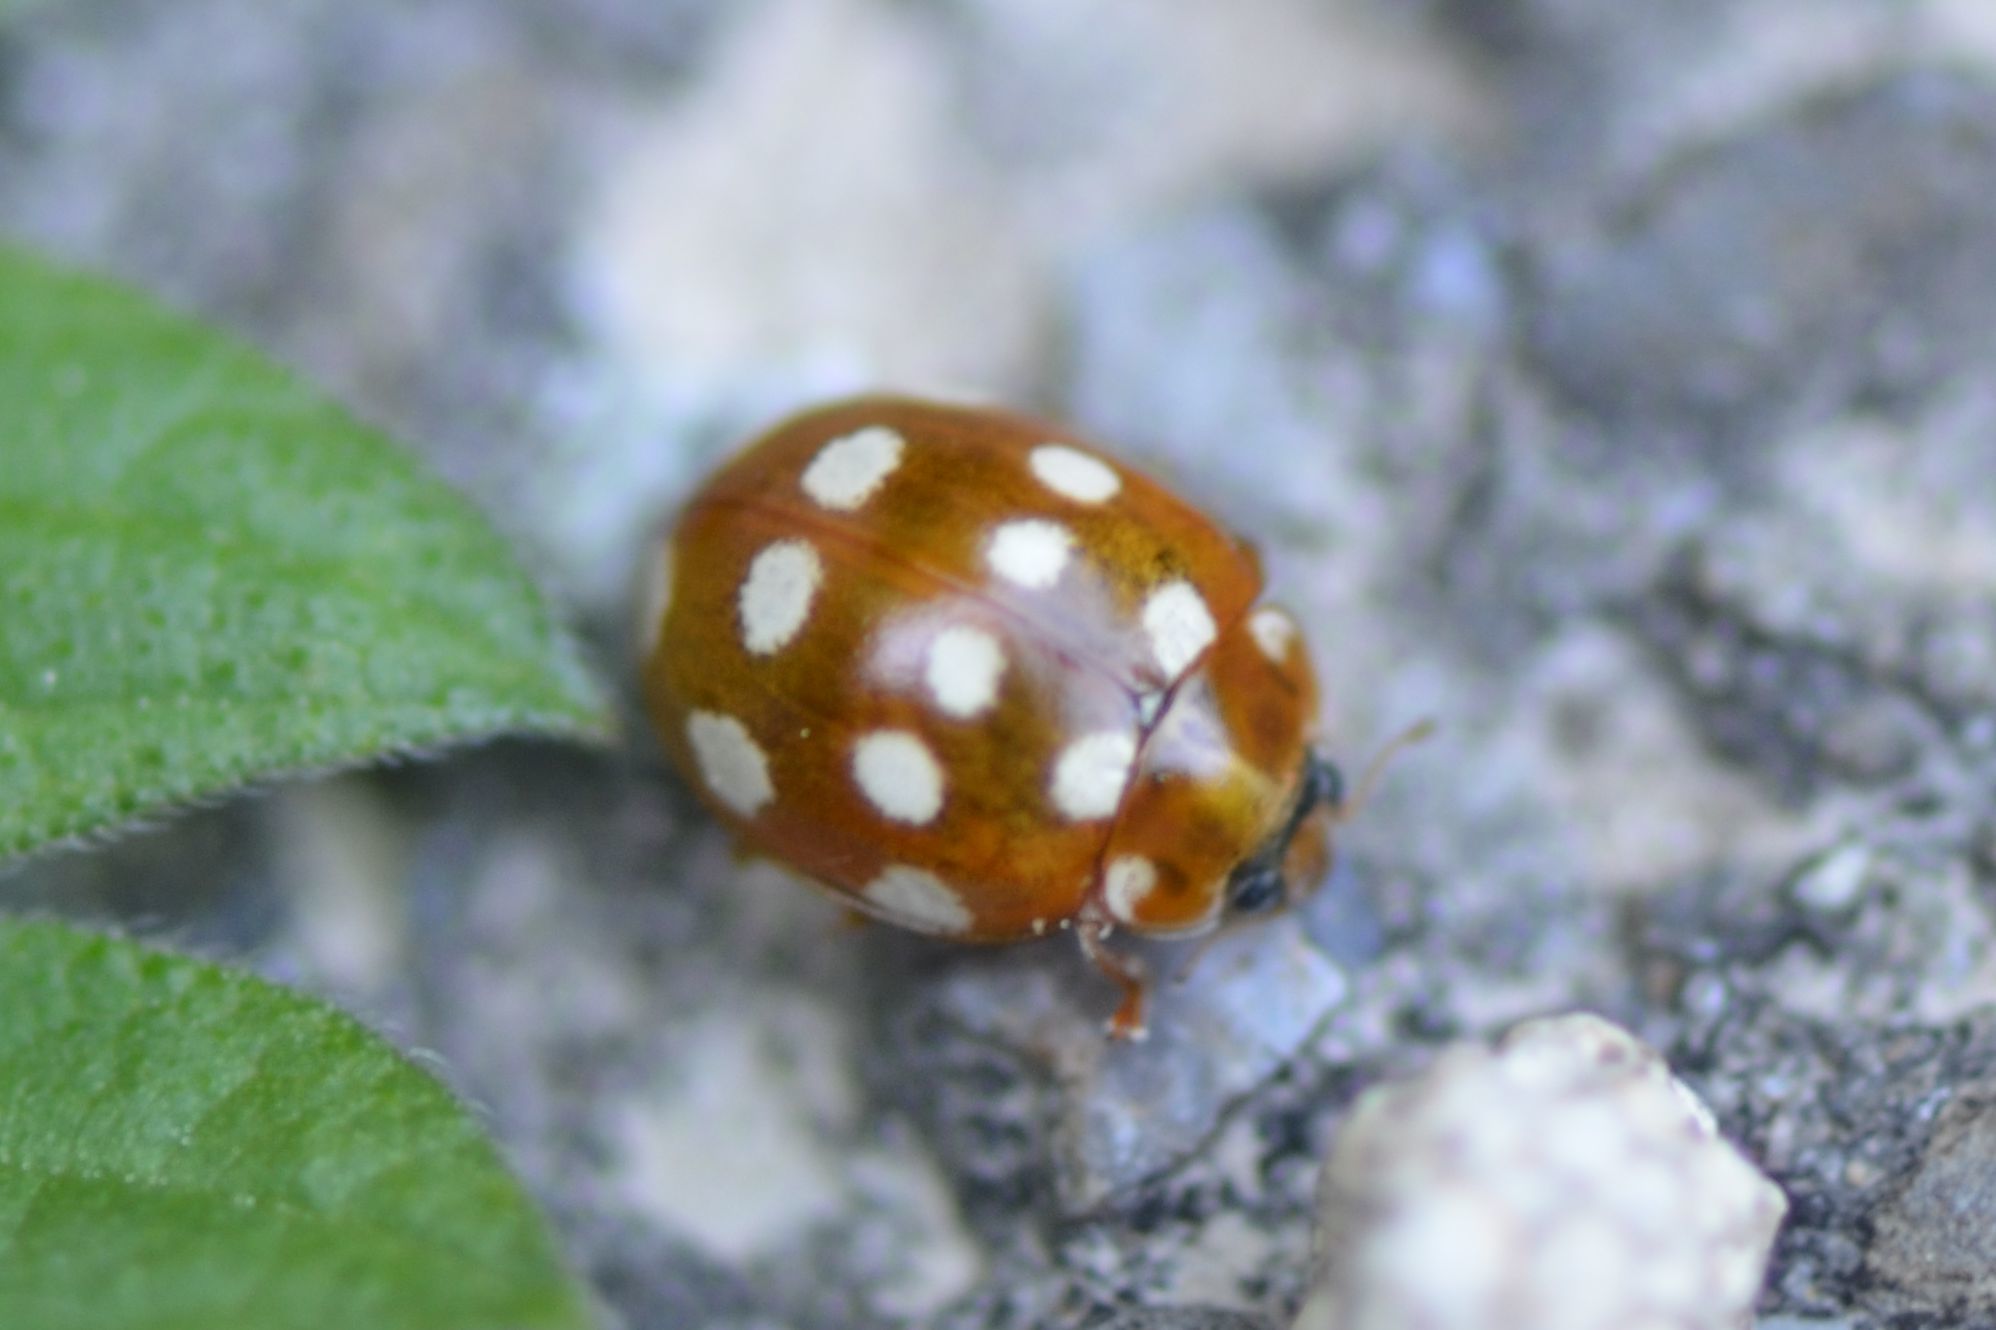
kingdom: Animalia
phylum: Arthropoda
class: Insecta
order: Coleoptera
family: Coccinellidae
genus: Calvia
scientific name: Calvia quatuordecimguttata
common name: Cream-spot ladybird
